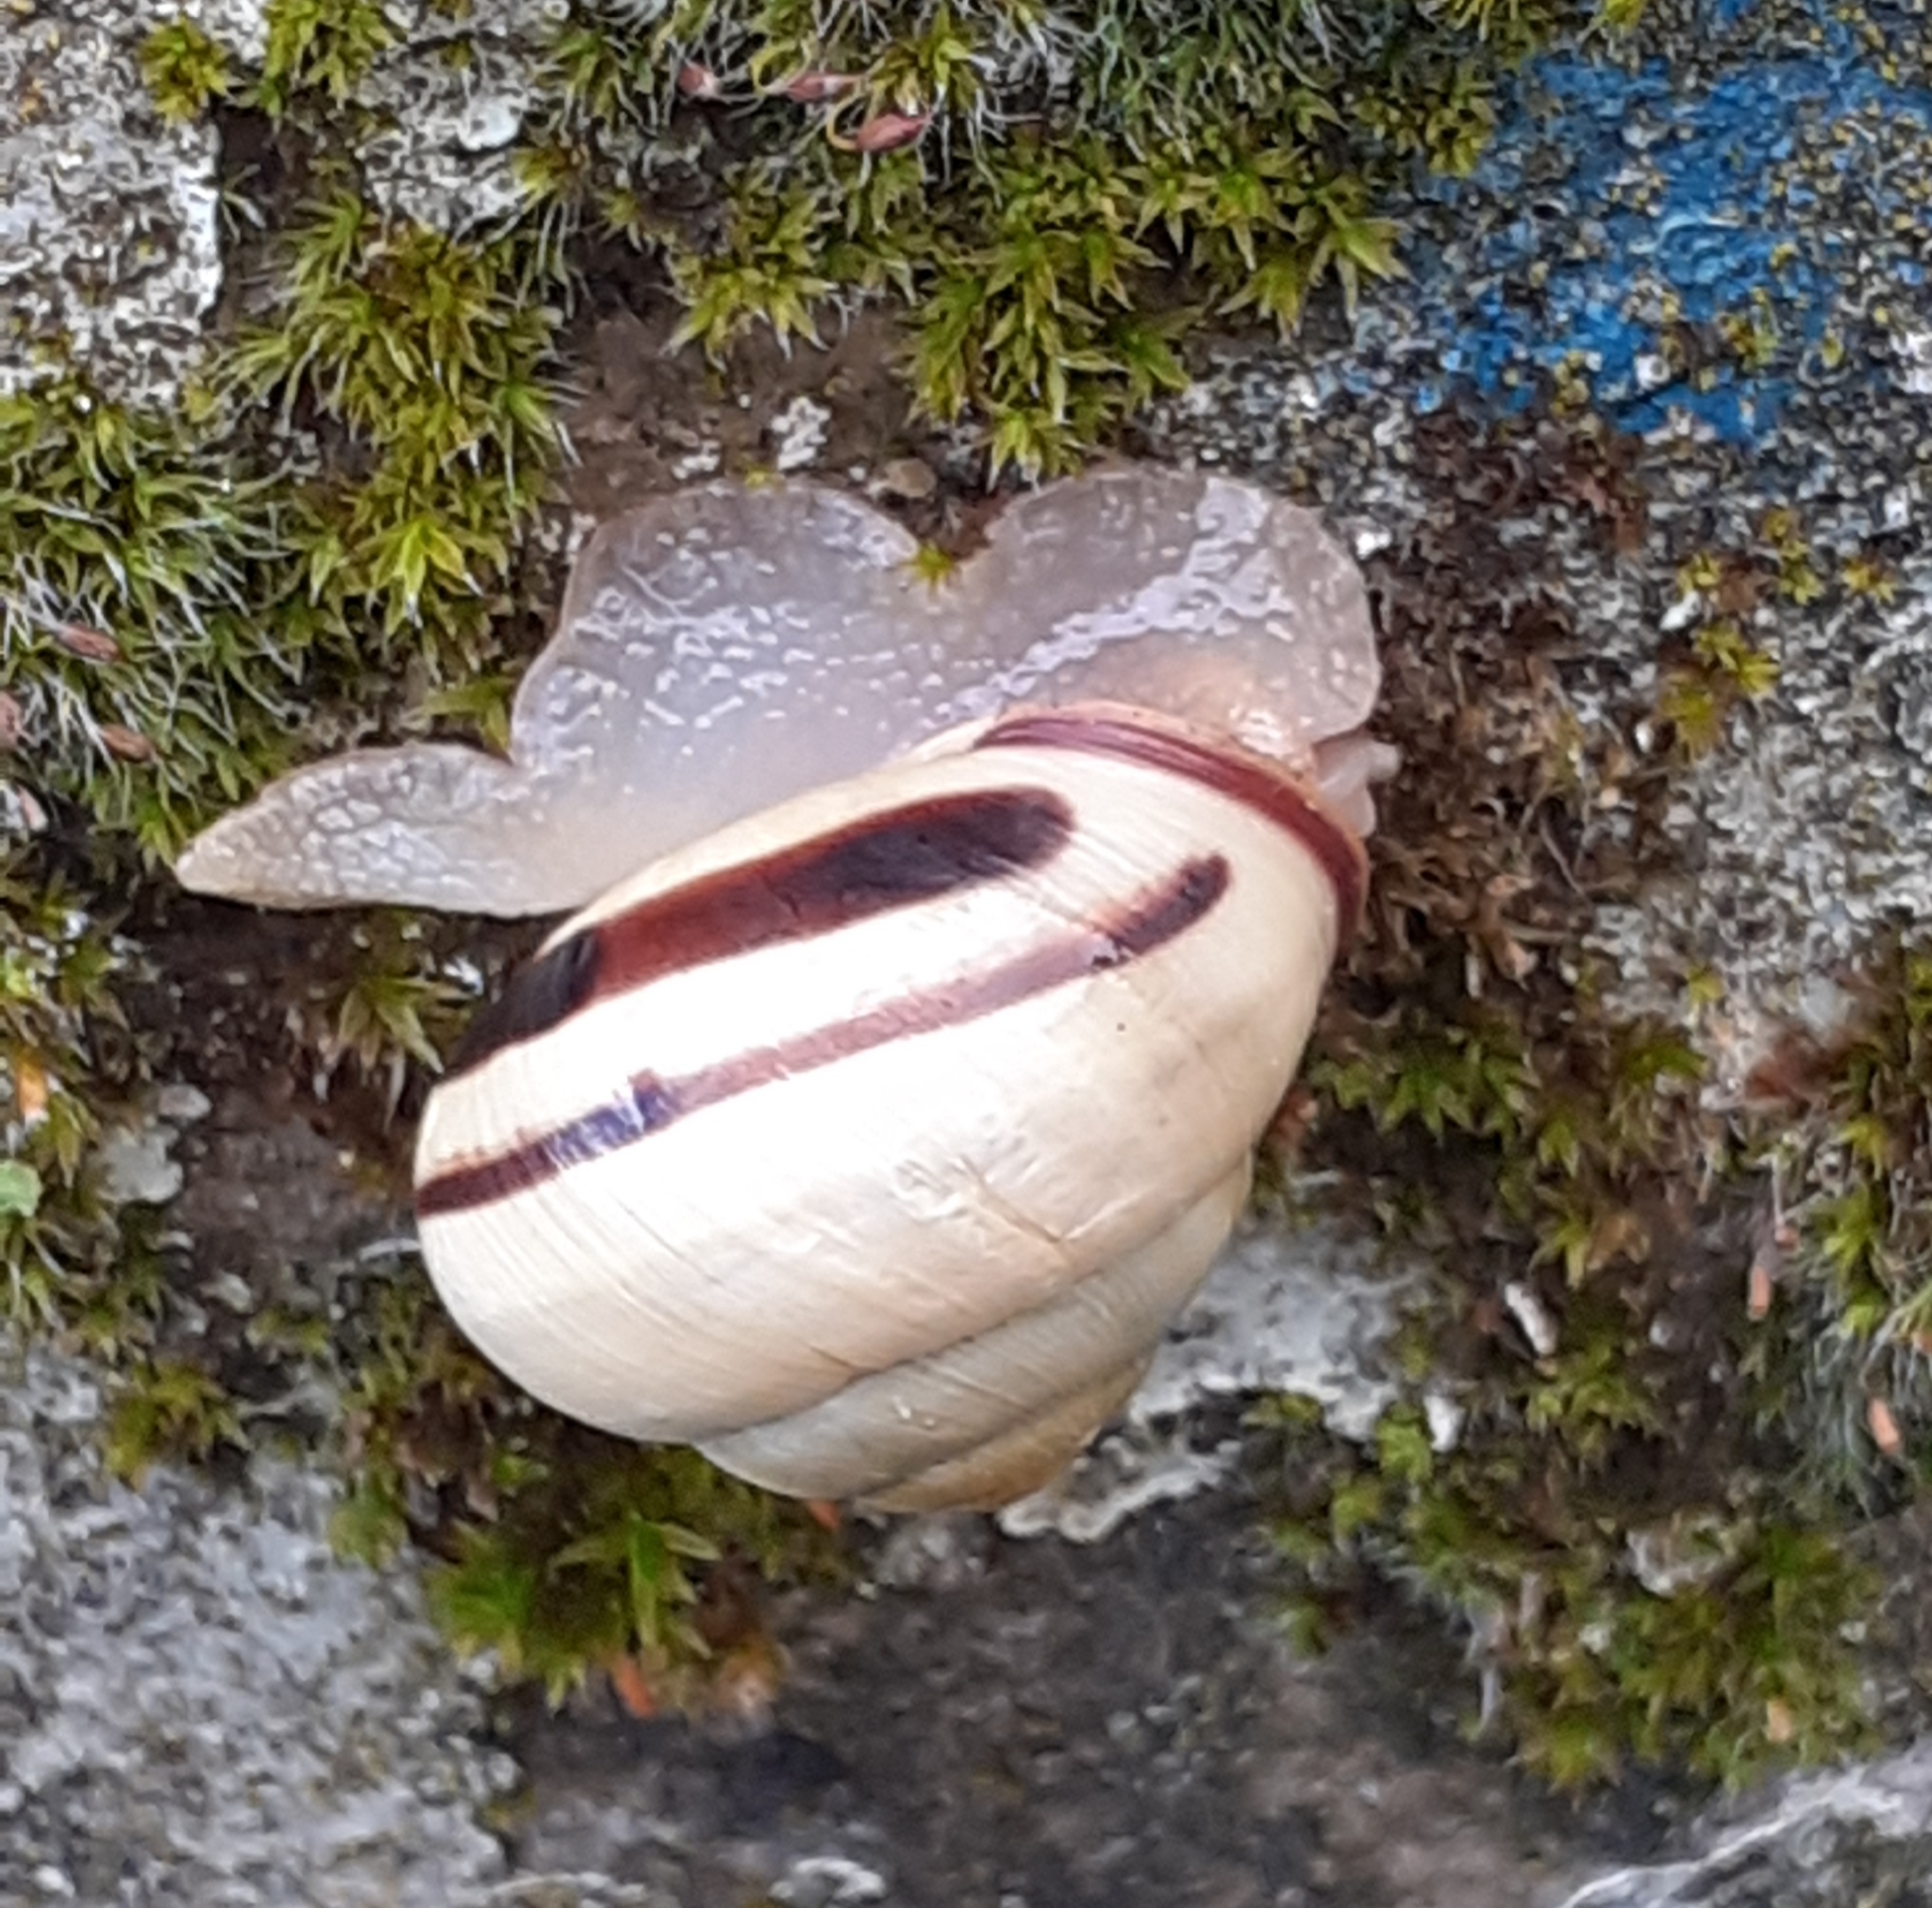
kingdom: Animalia
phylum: Mollusca
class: Gastropoda
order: Stylommatophora
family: Helicidae
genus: Cepaea
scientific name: Cepaea nemoralis
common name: Grovesnail
